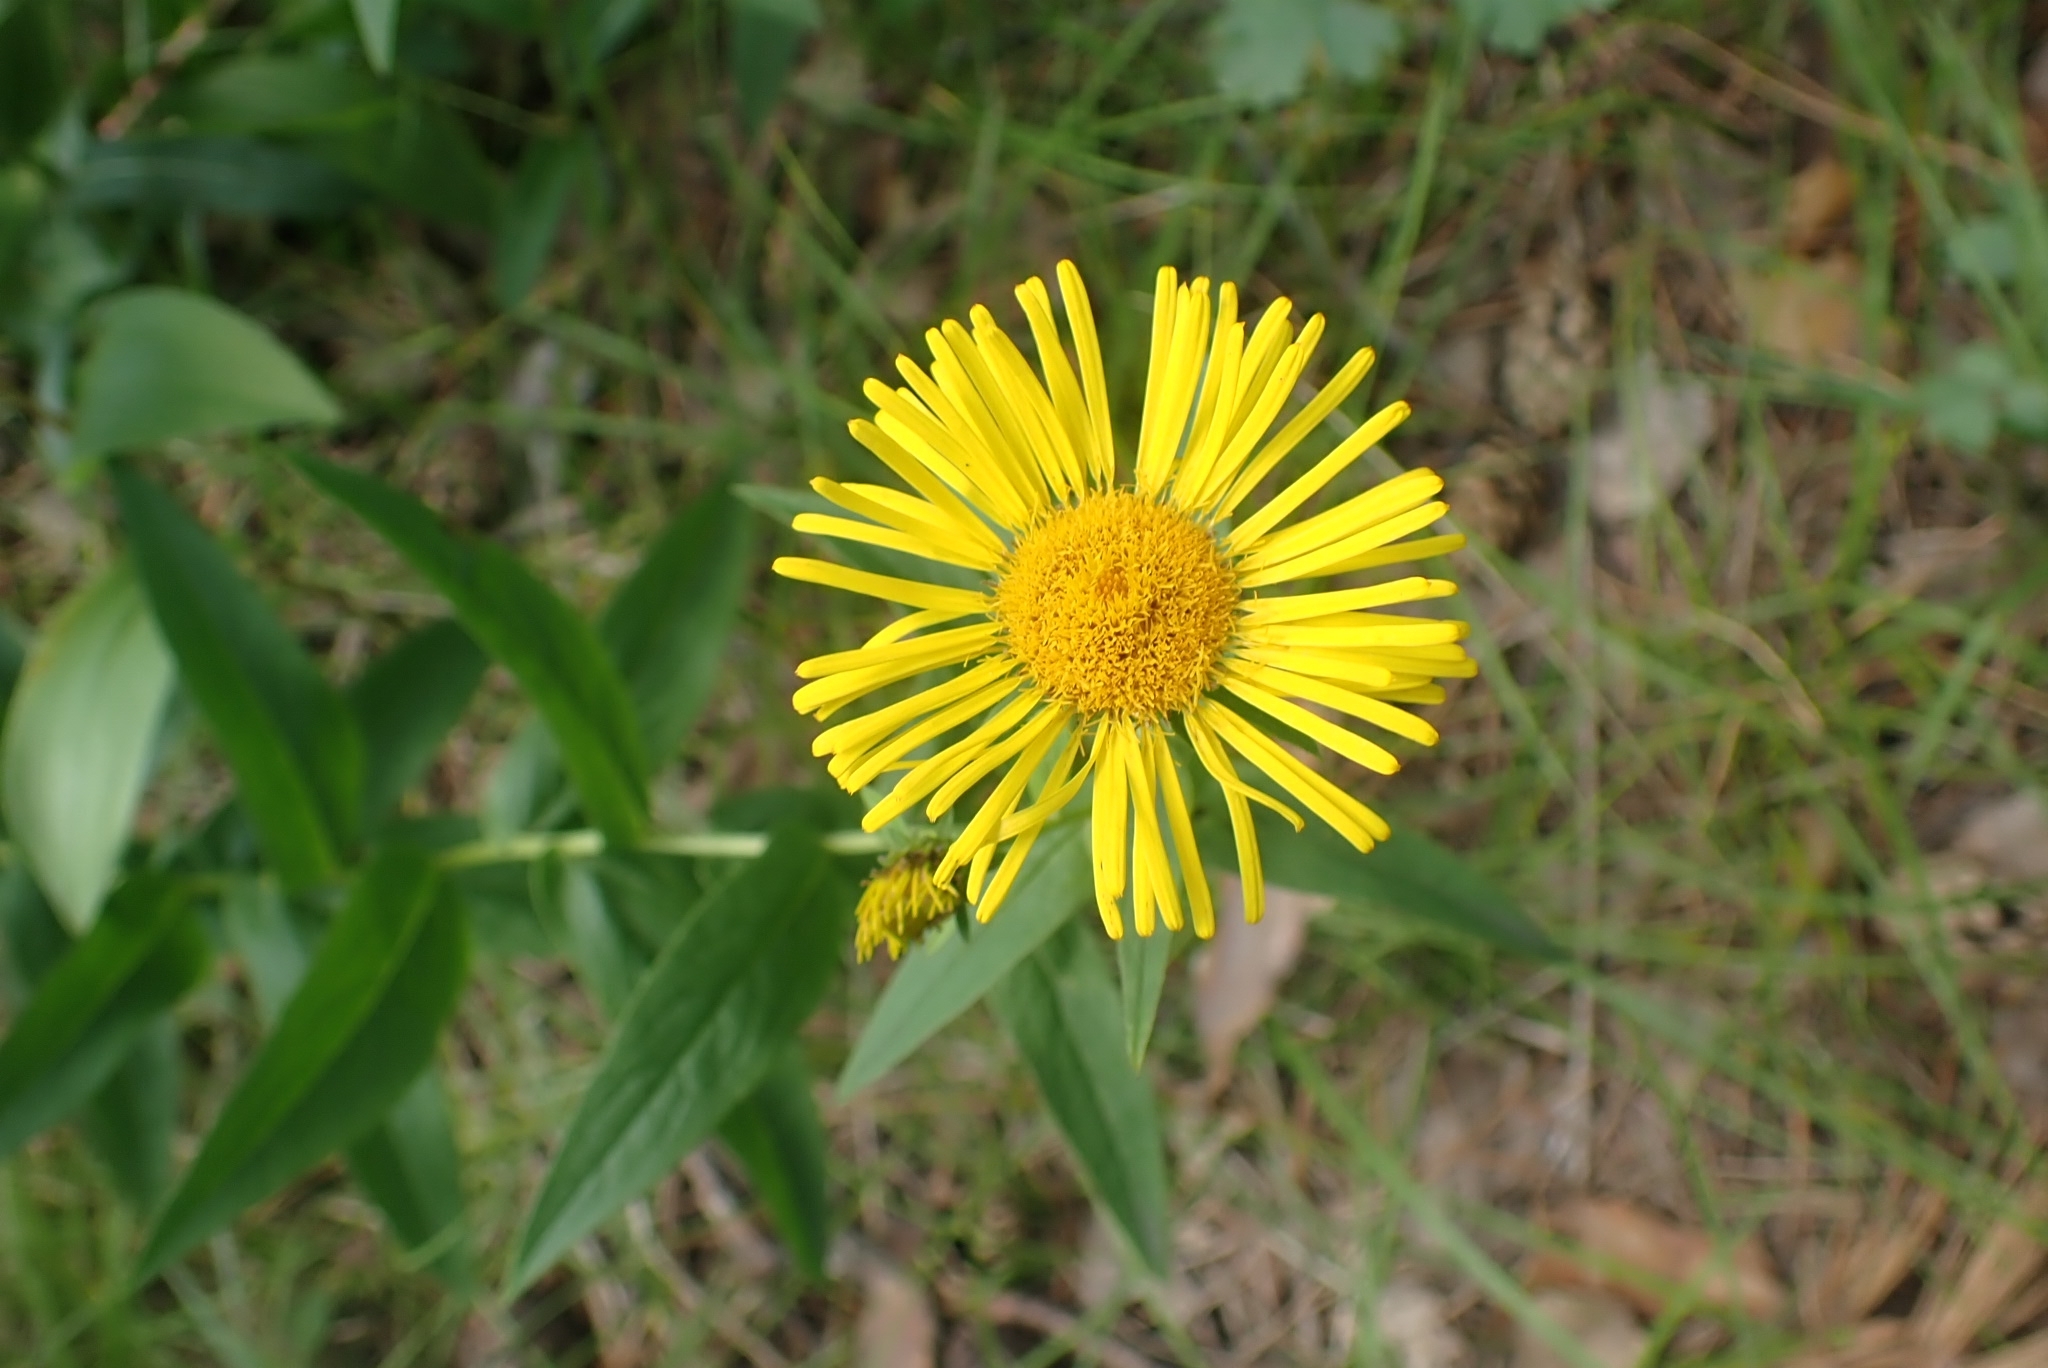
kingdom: Plantae
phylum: Tracheophyta
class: Magnoliopsida
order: Asterales
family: Asteraceae
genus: Pentanema
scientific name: Pentanema salicinum
